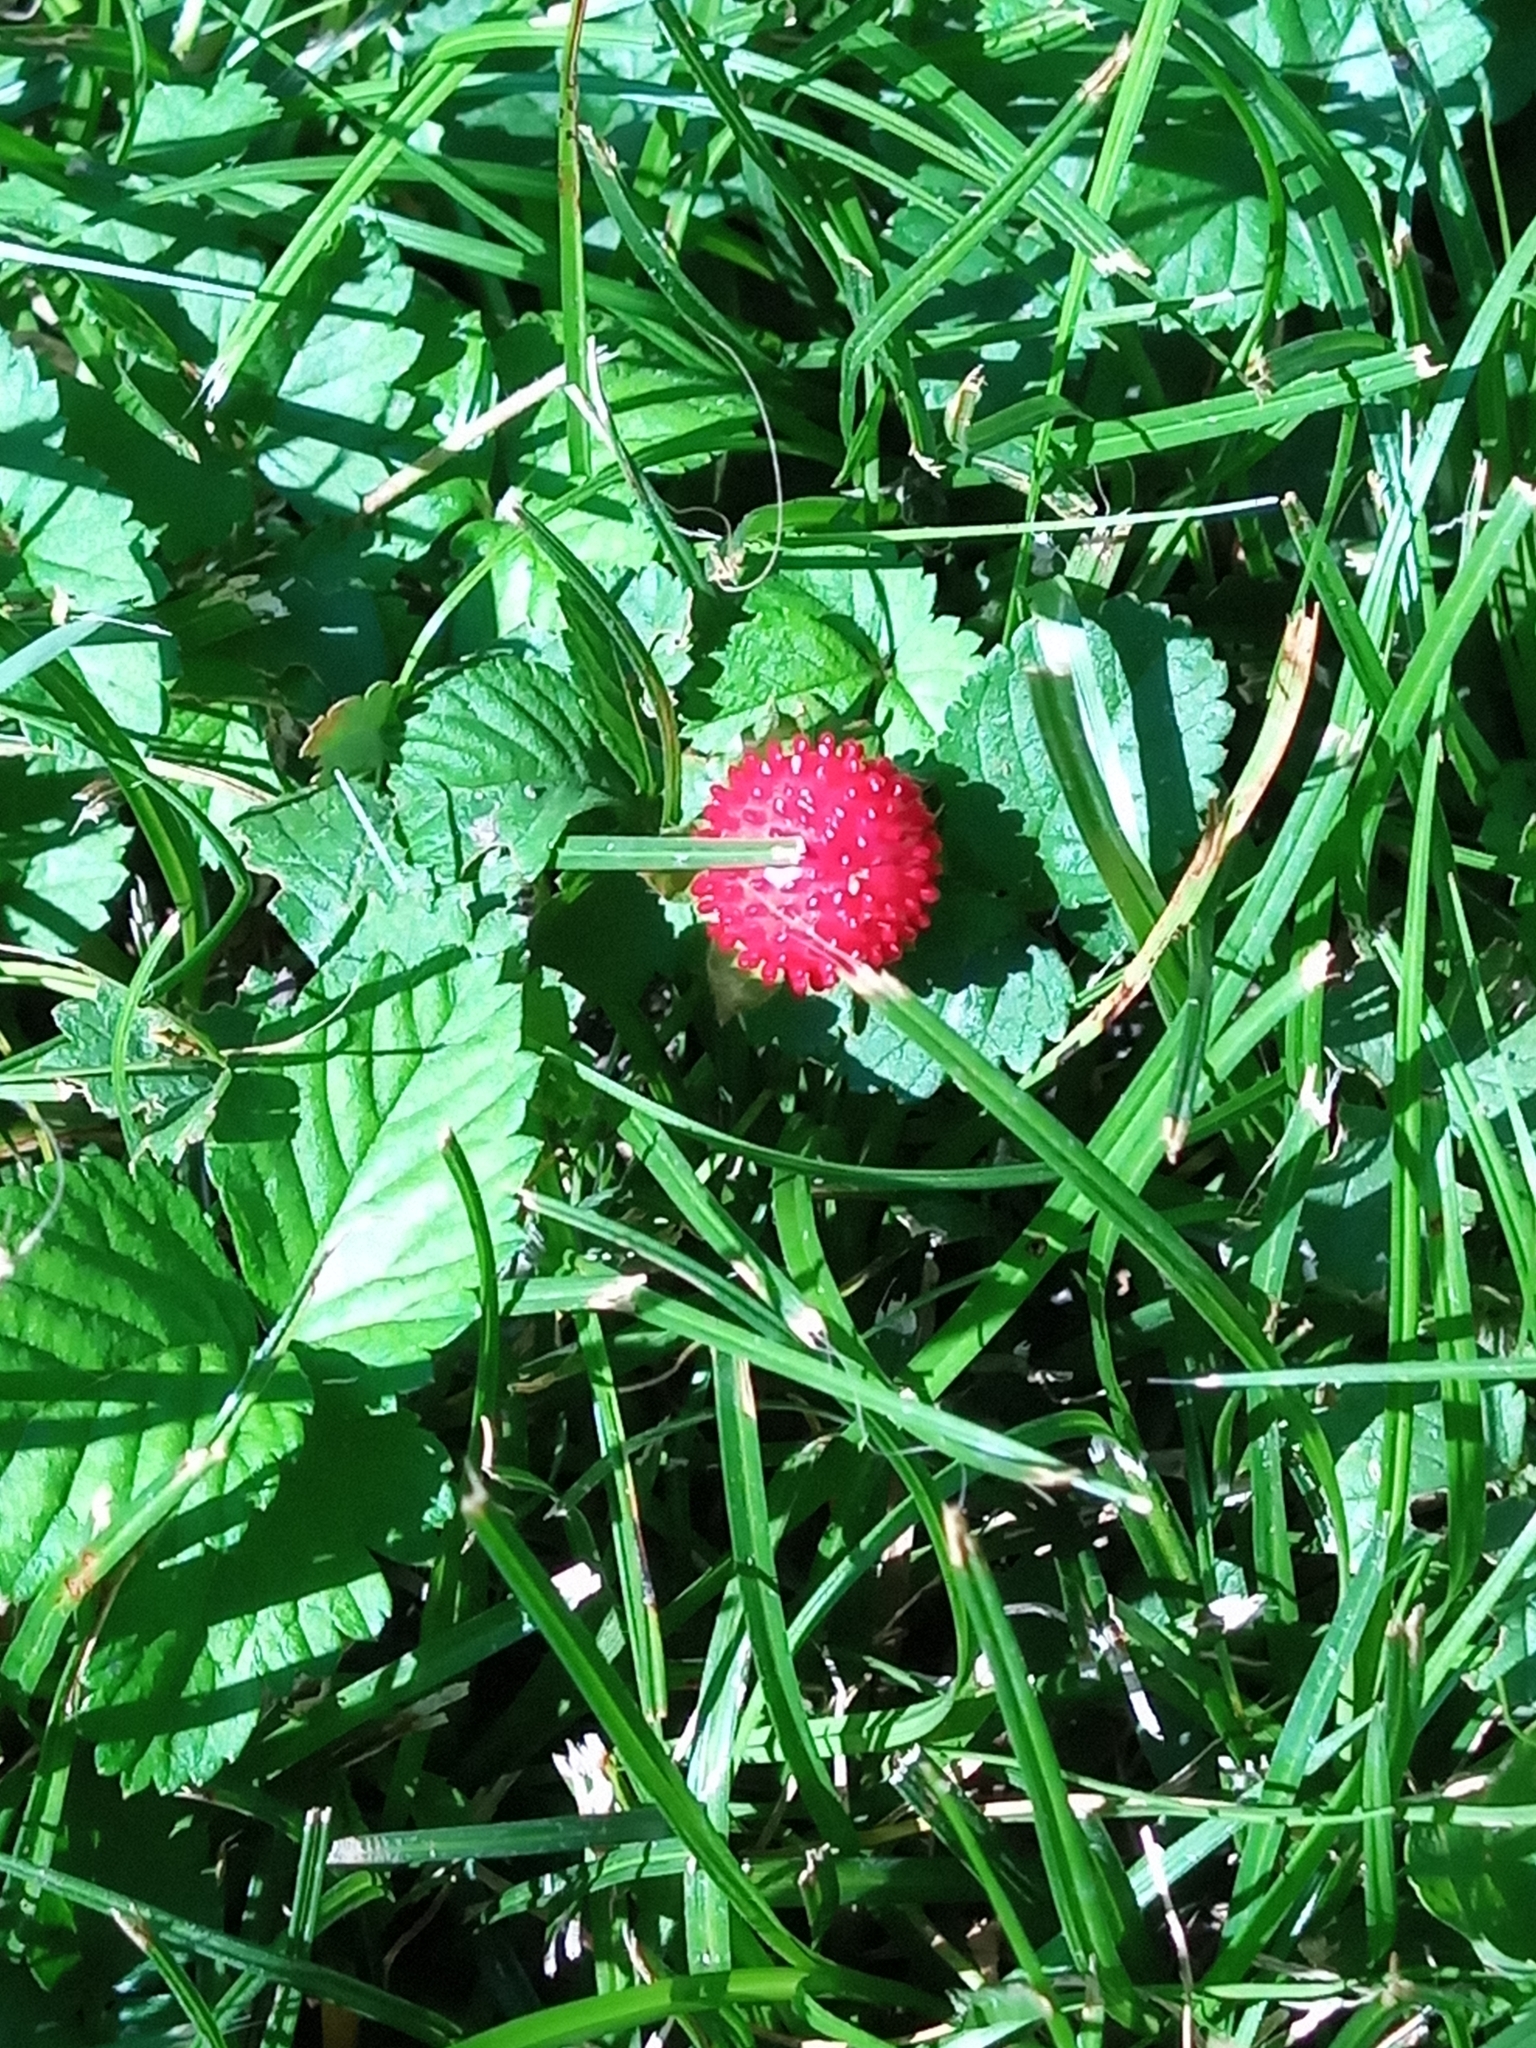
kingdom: Plantae
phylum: Tracheophyta
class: Magnoliopsida
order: Rosales
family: Rosaceae
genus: Potentilla
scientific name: Potentilla indica
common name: Yellow-flowered strawberry
